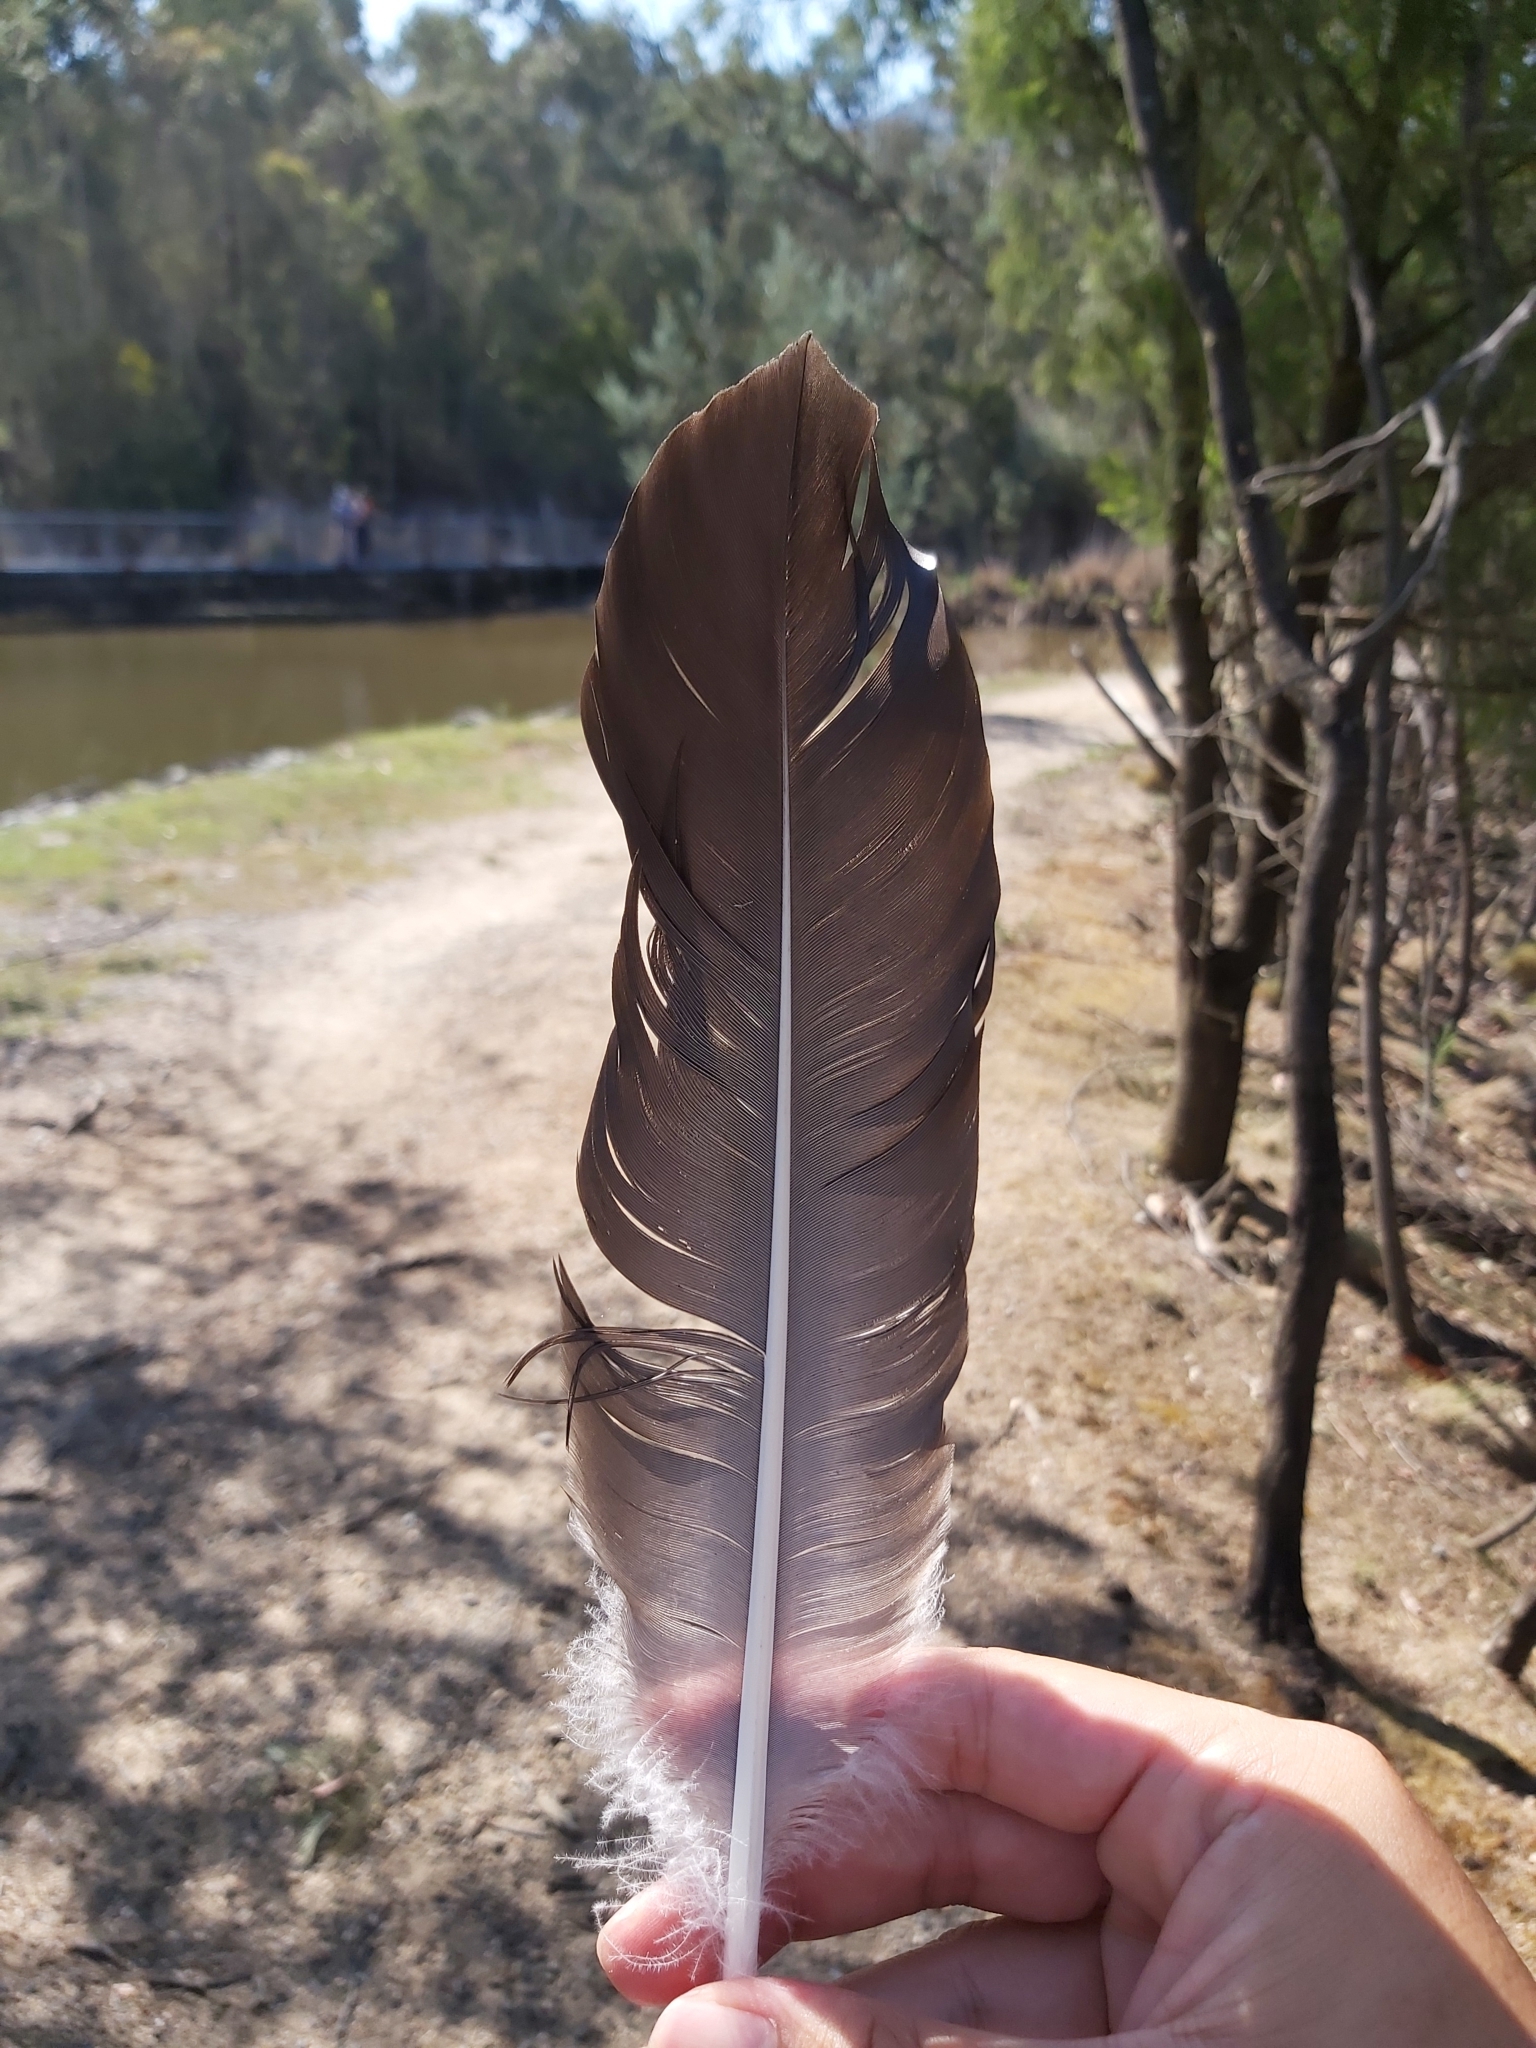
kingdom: Animalia
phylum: Chordata
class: Aves
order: Anseriformes
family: Anatidae
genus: Cygnus
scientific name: Cygnus atratus
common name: Black swan
